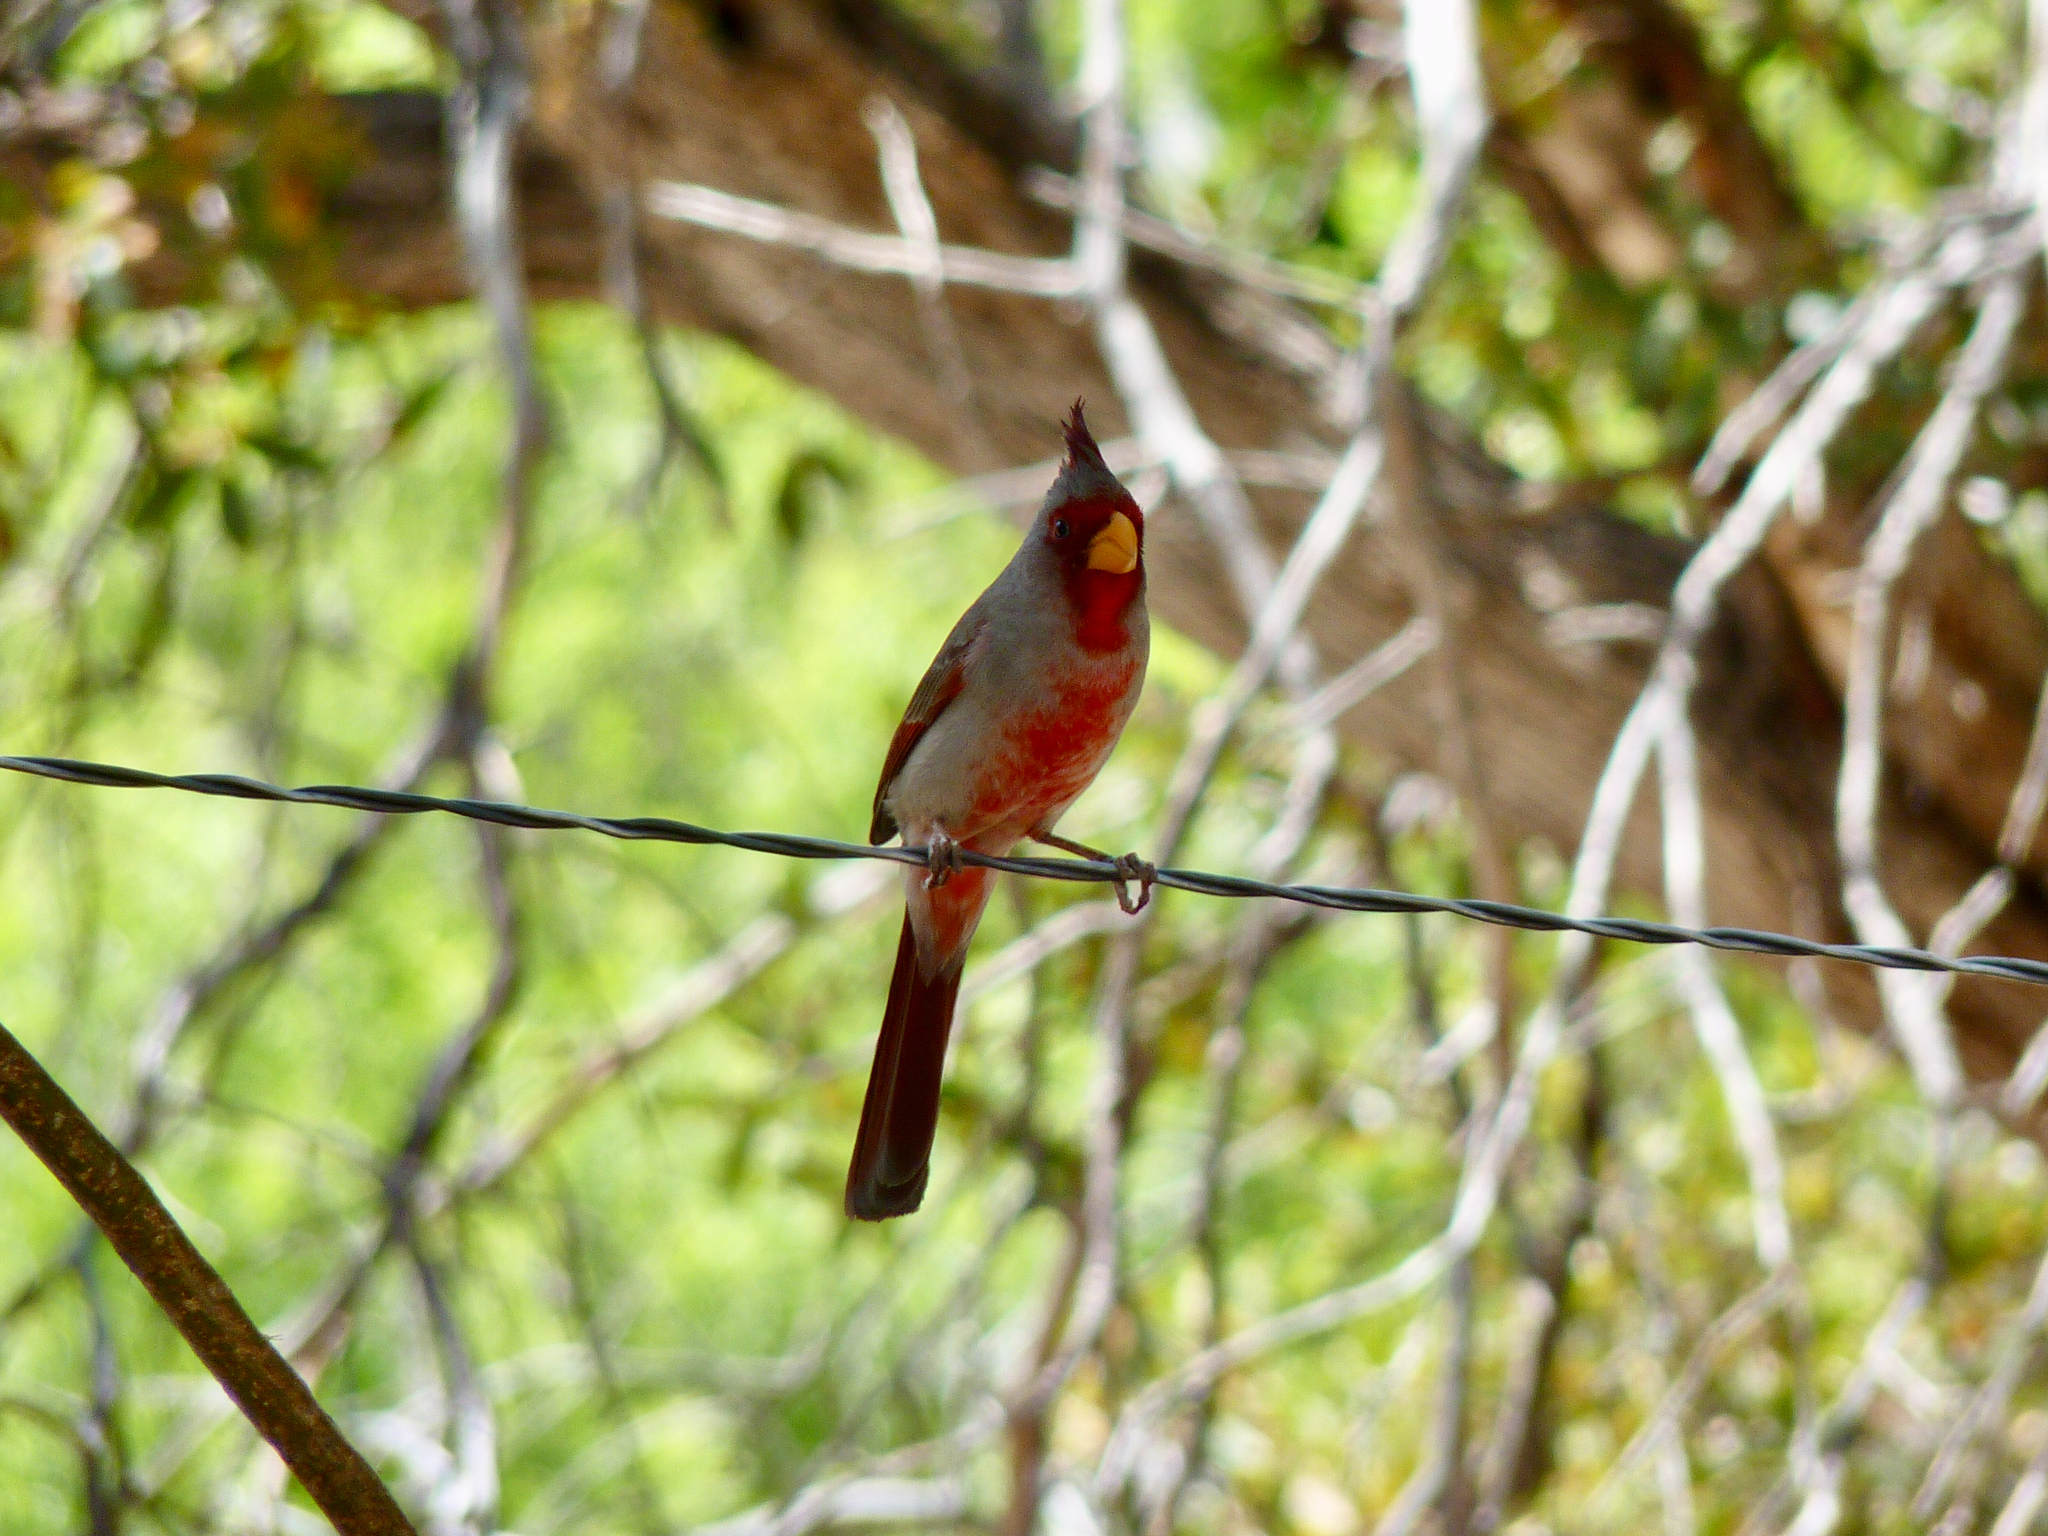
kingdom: Animalia
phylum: Chordata
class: Aves
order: Passeriformes
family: Cardinalidae
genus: Cardinalis
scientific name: Cardinalis sinuatus
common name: Pyrrhuloxia
